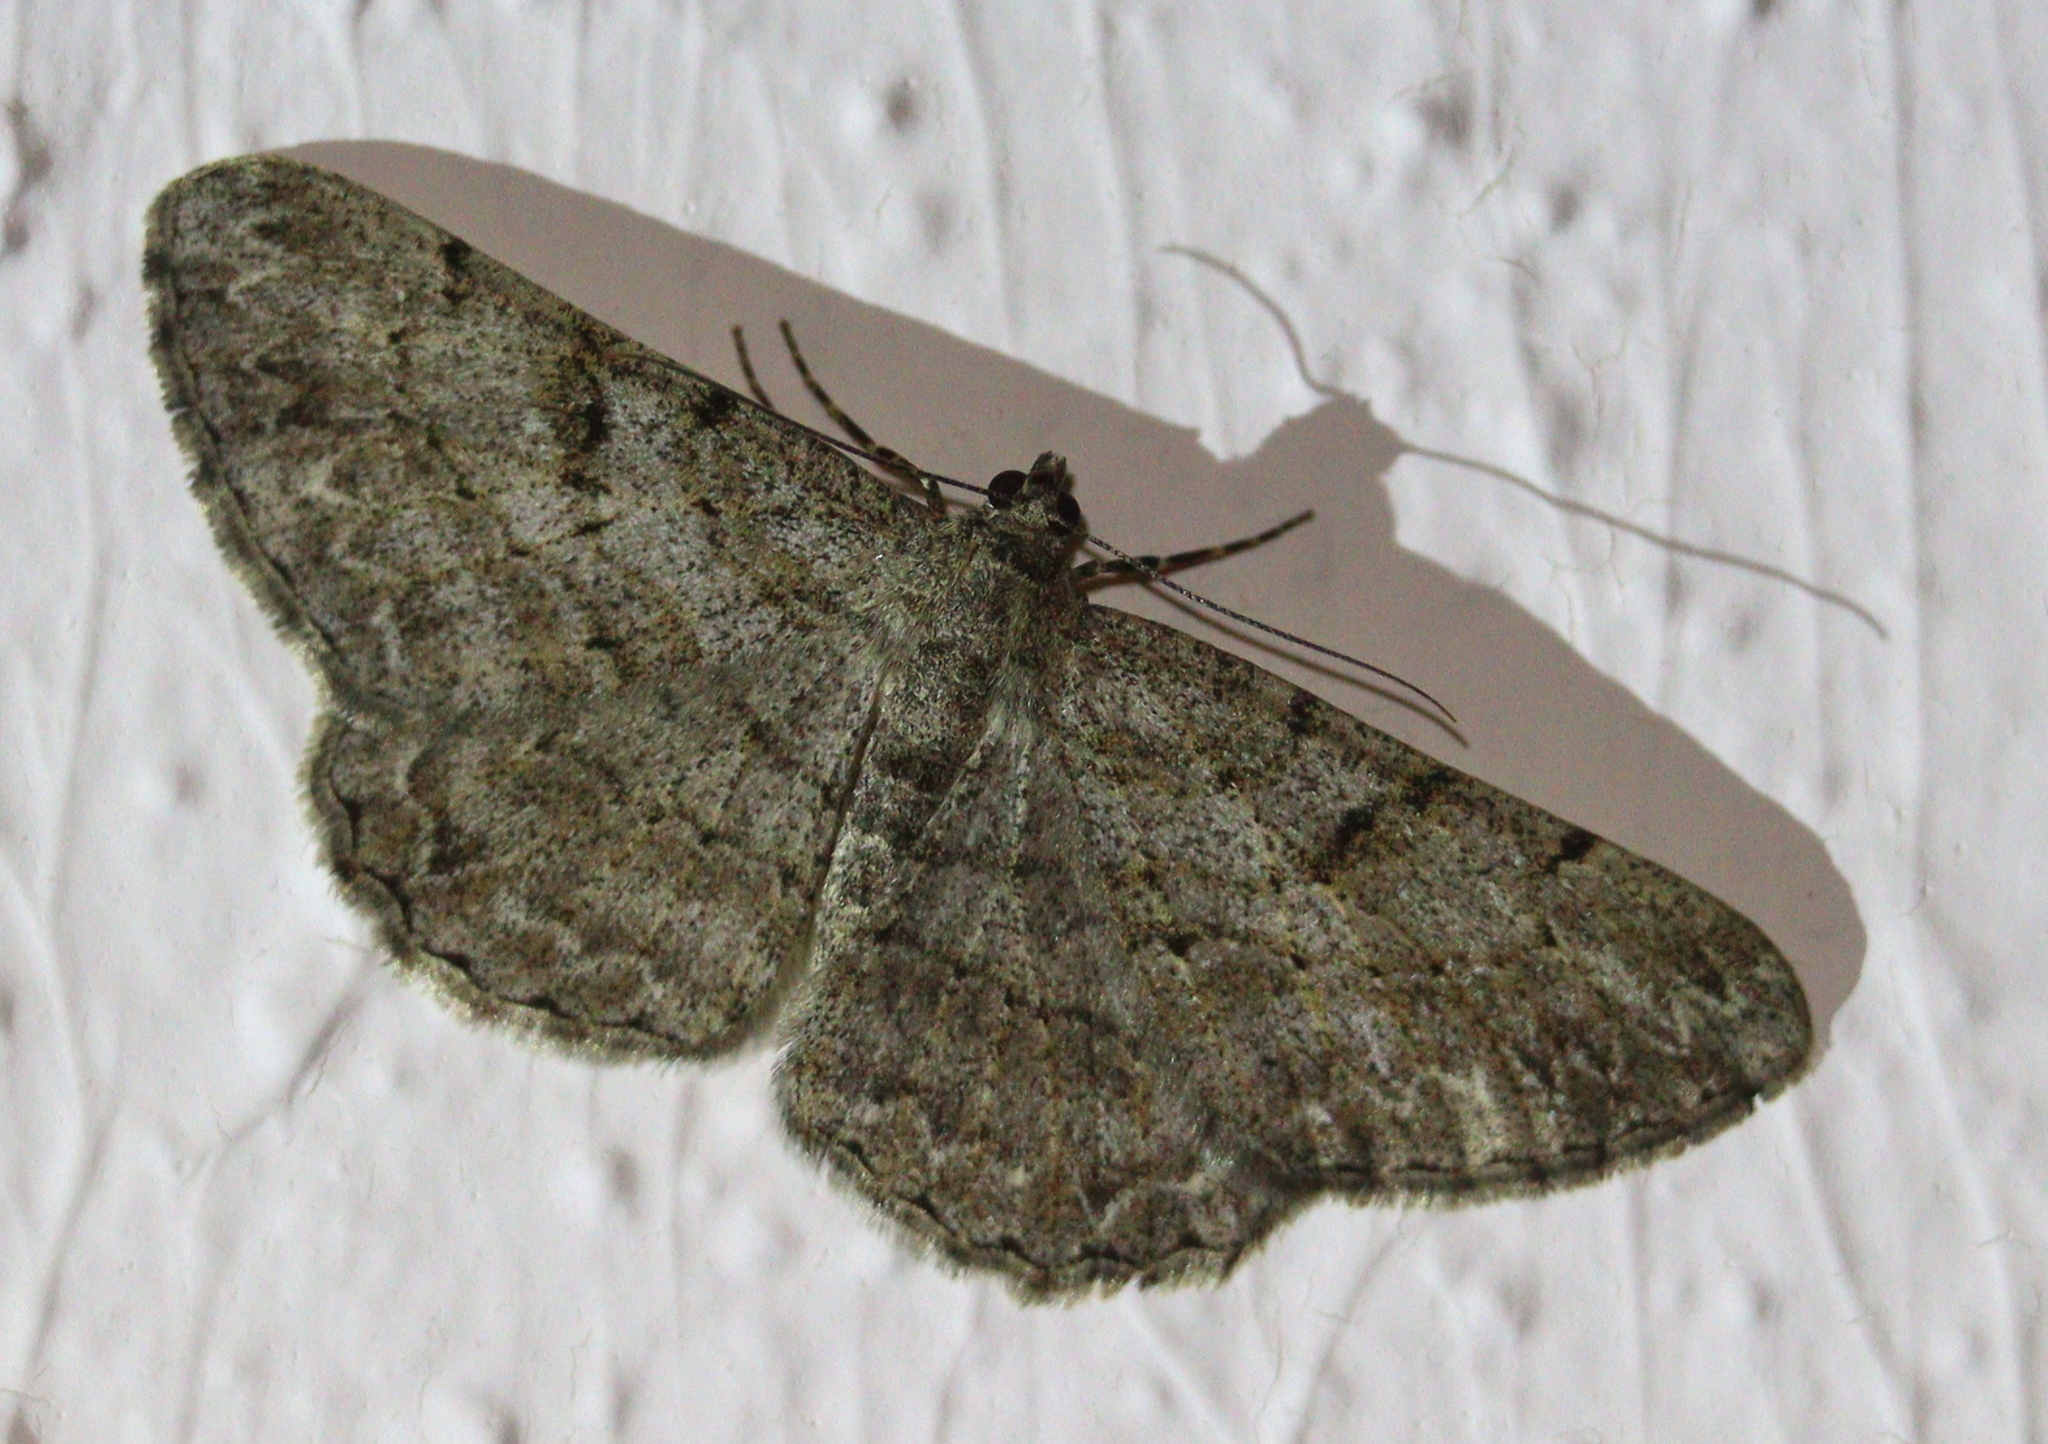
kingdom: Animalia
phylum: Arthropoda
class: Insecta
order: Lepidoptera
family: Geometridae
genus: Peribatodes
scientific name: Peribatodes rhomboidaria
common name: Willow beauty
